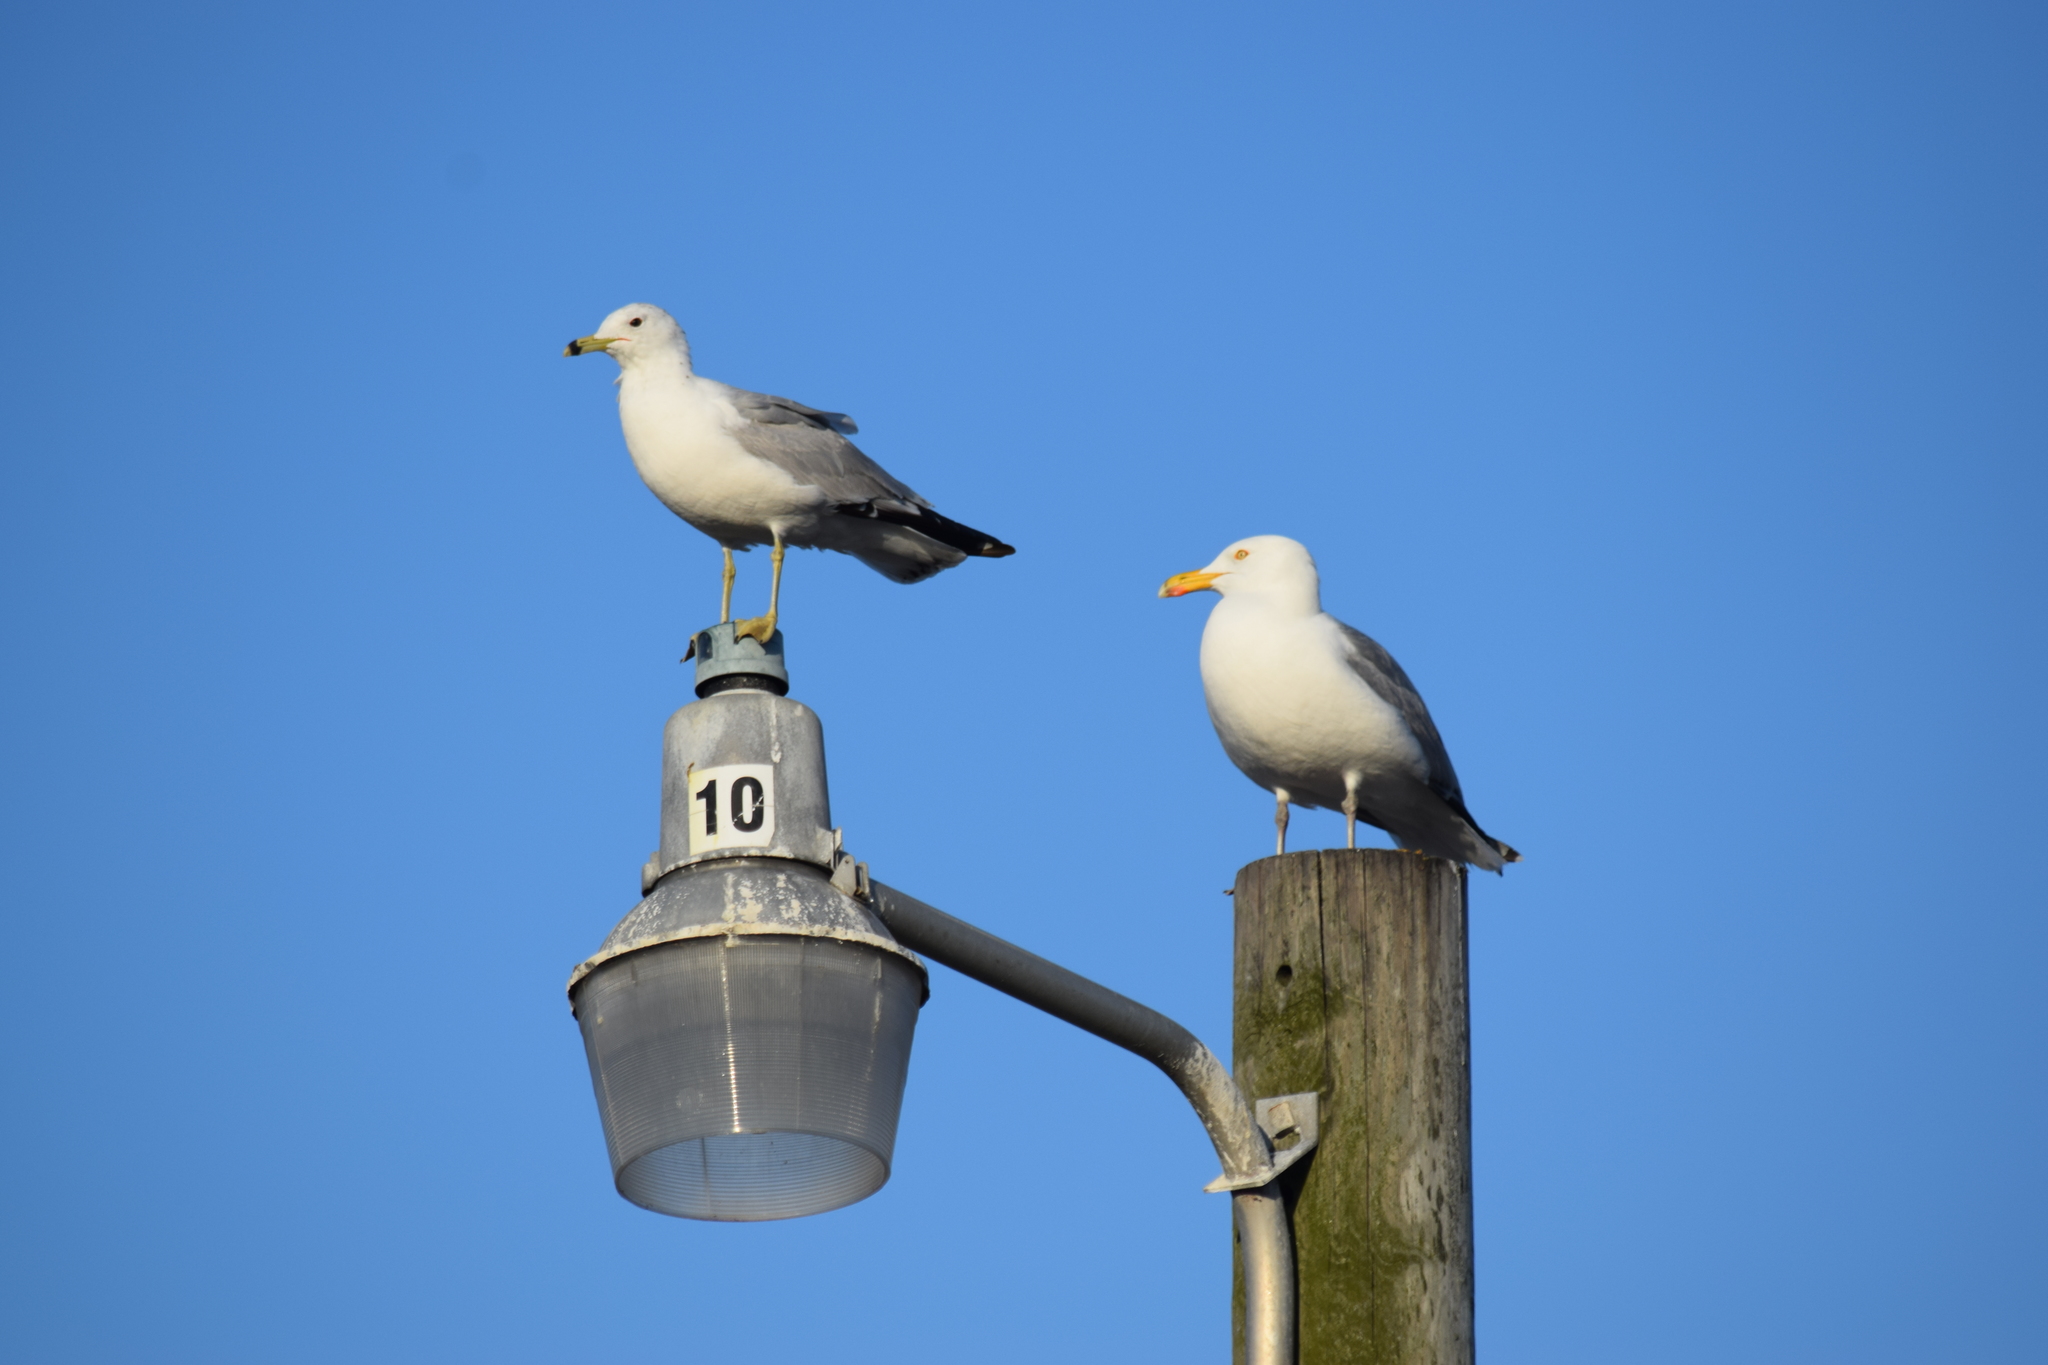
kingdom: Animalia
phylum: Chordata
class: Aves
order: Charadriiformes
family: Laridae
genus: Larus
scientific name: Larus delawarensis
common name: Ring-billed gull
